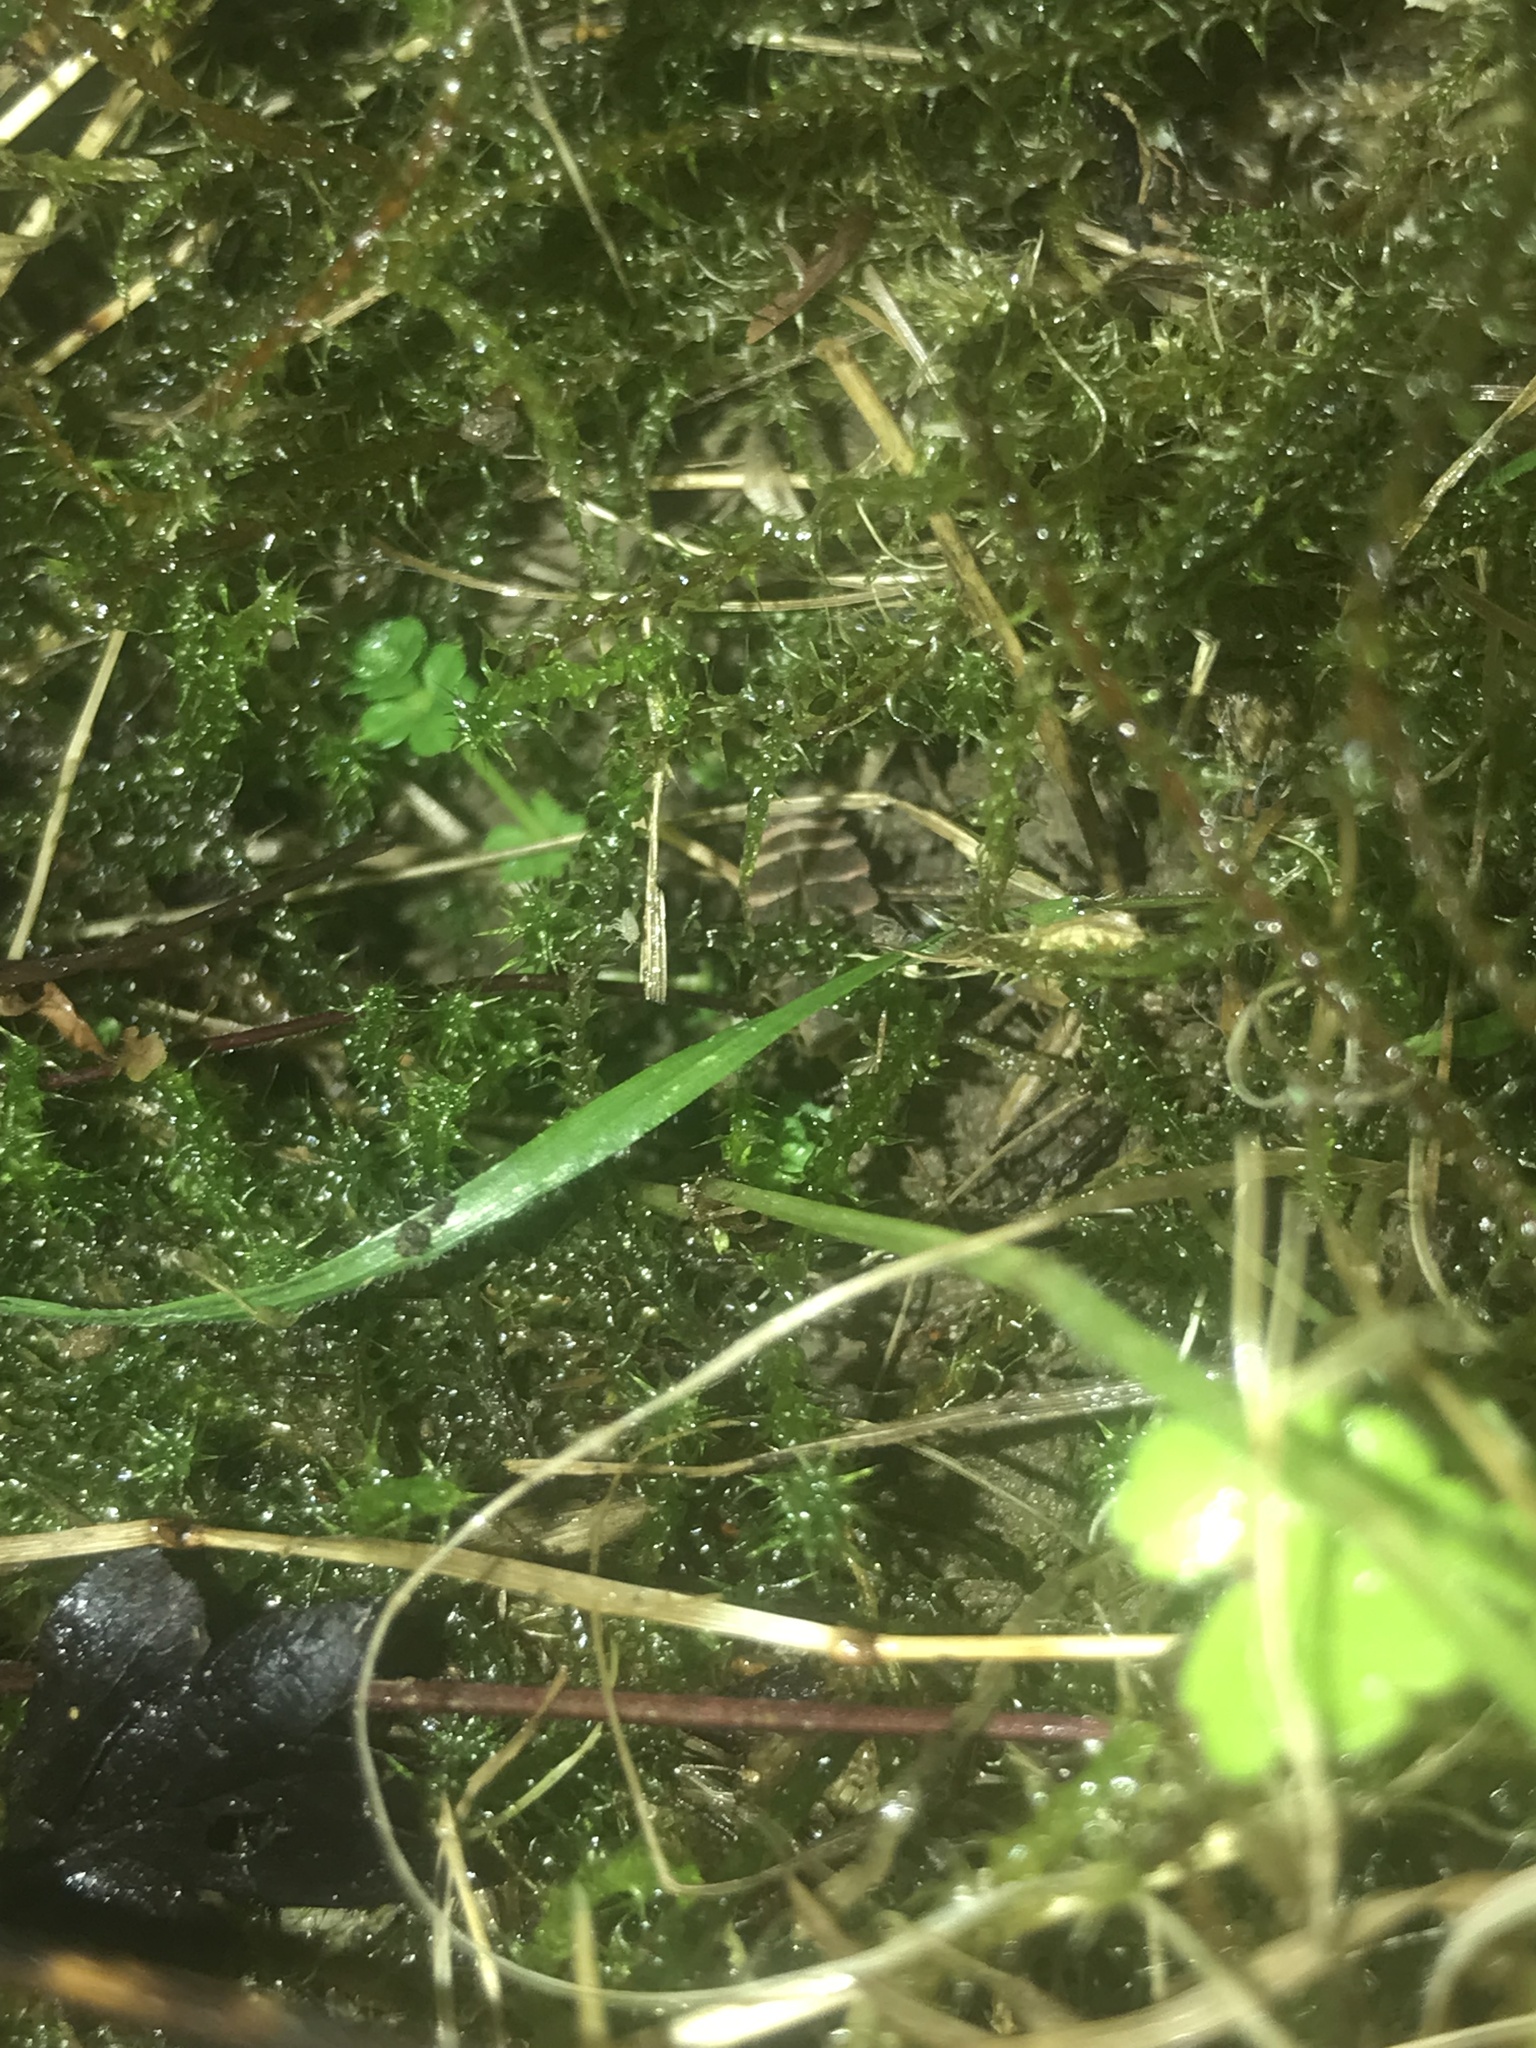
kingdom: Animalia
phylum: Arthropoda
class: Insecta
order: Coleoptera
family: Lampyridae
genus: Lampyris
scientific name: Lampyris noctiluca
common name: Glow-worm
